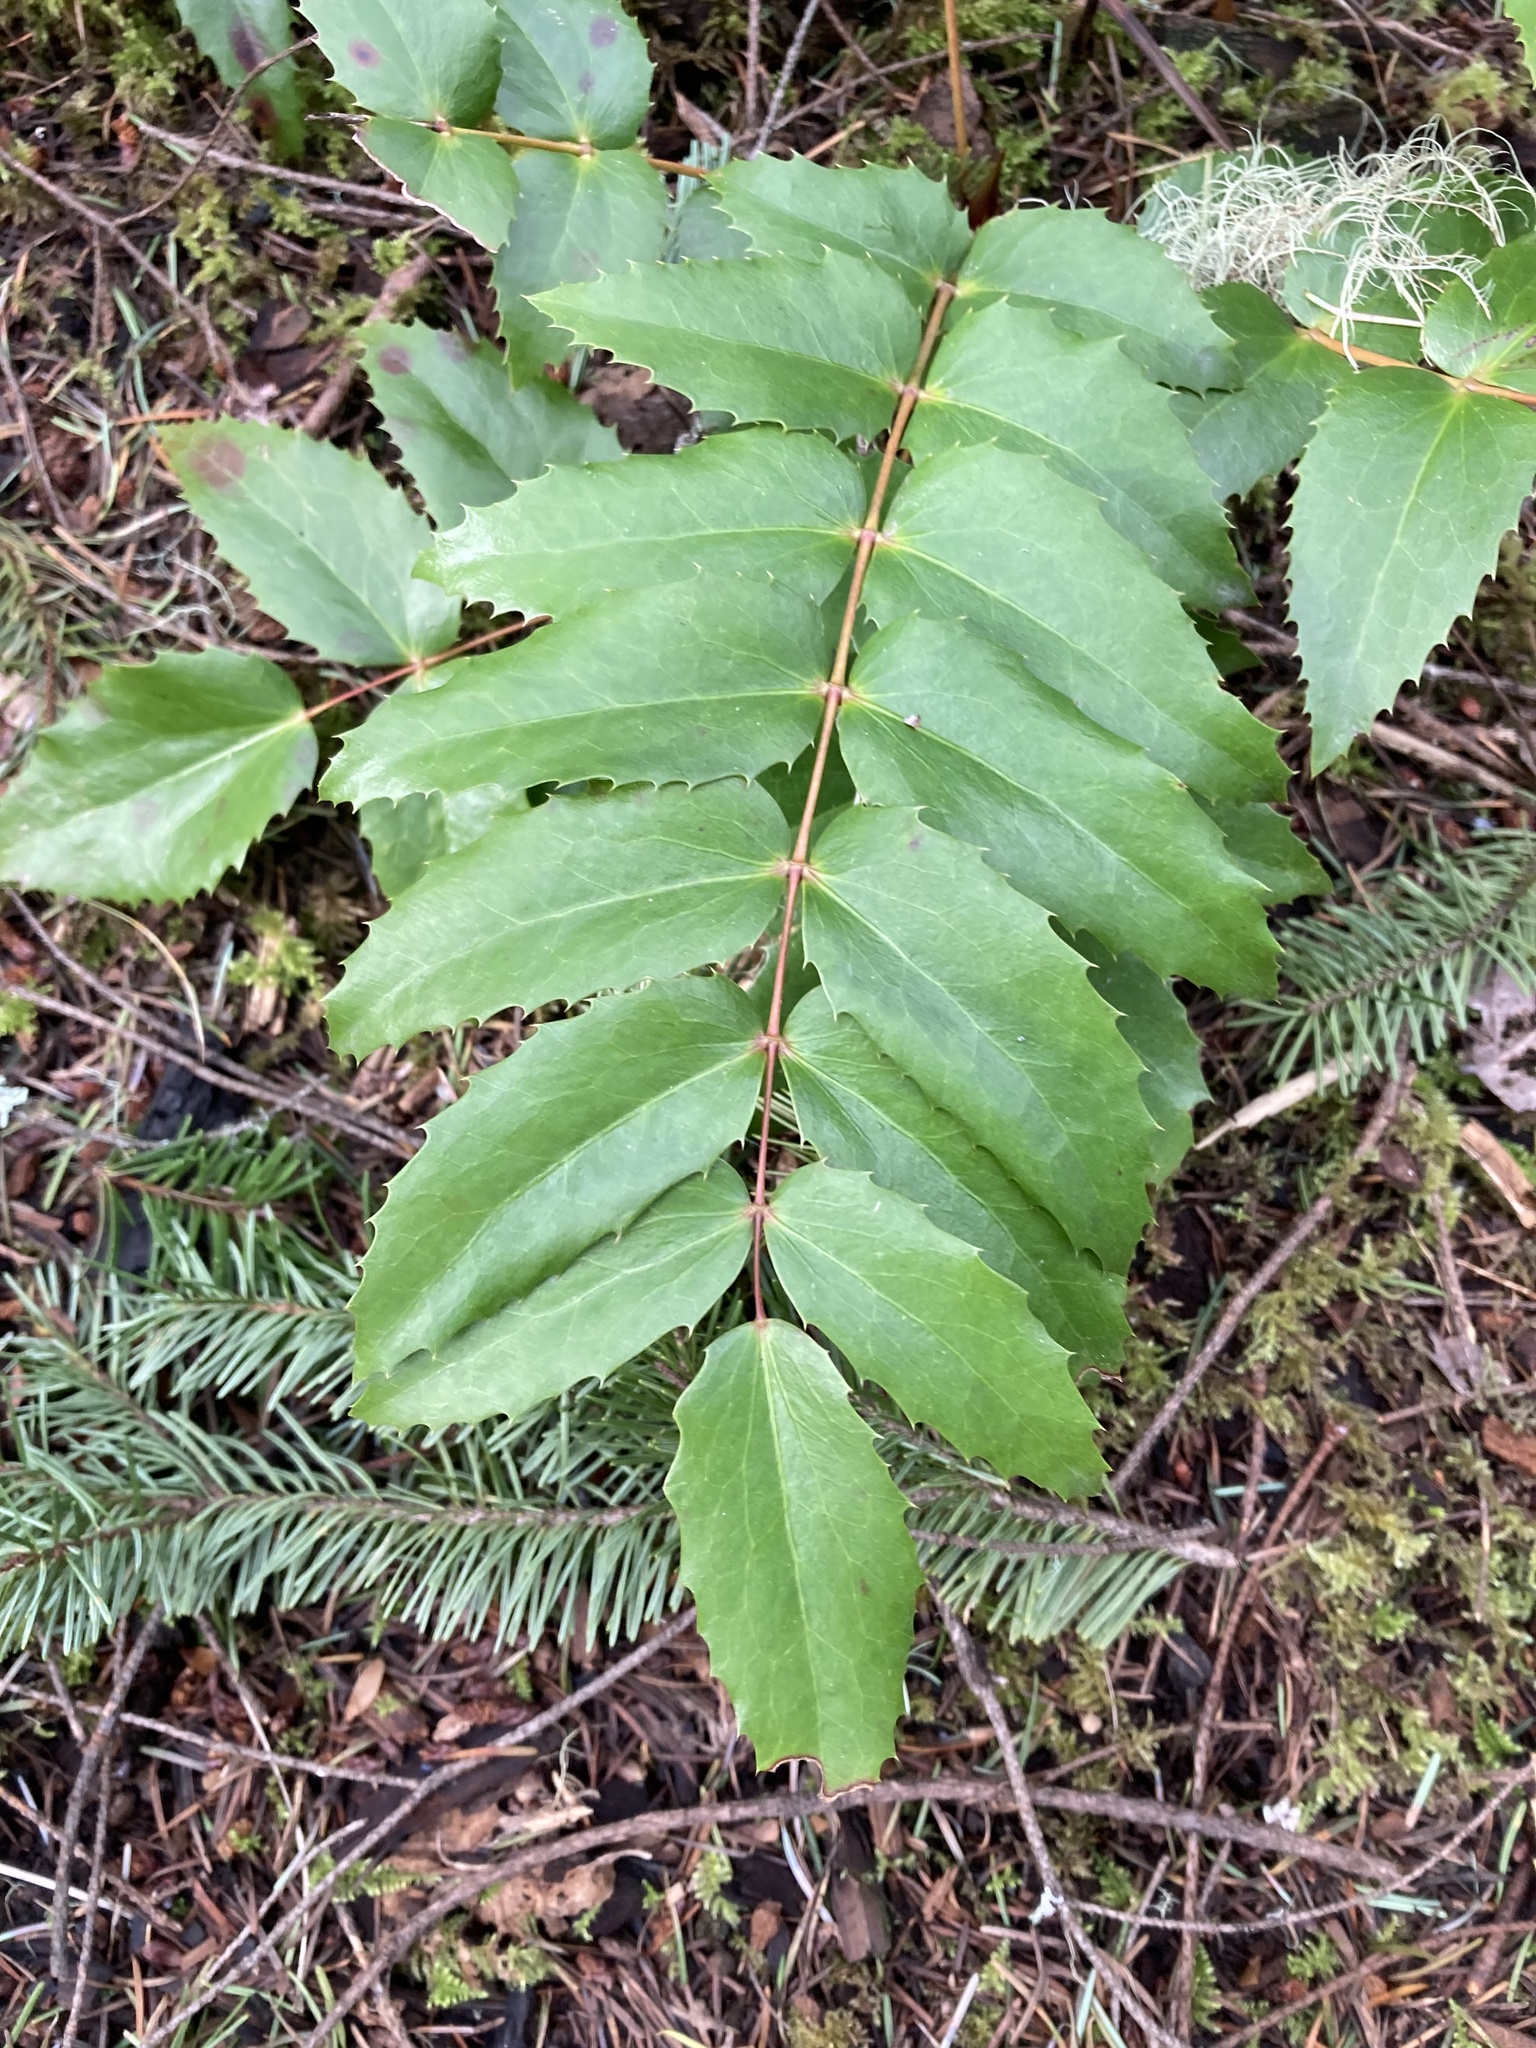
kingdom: Plantae
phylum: Tracheophyta
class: Magnoliopsida
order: Ranunculales
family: Berberidaceae
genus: Mahonia
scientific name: Mahonia nervosa
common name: Cascade oregon-grape
